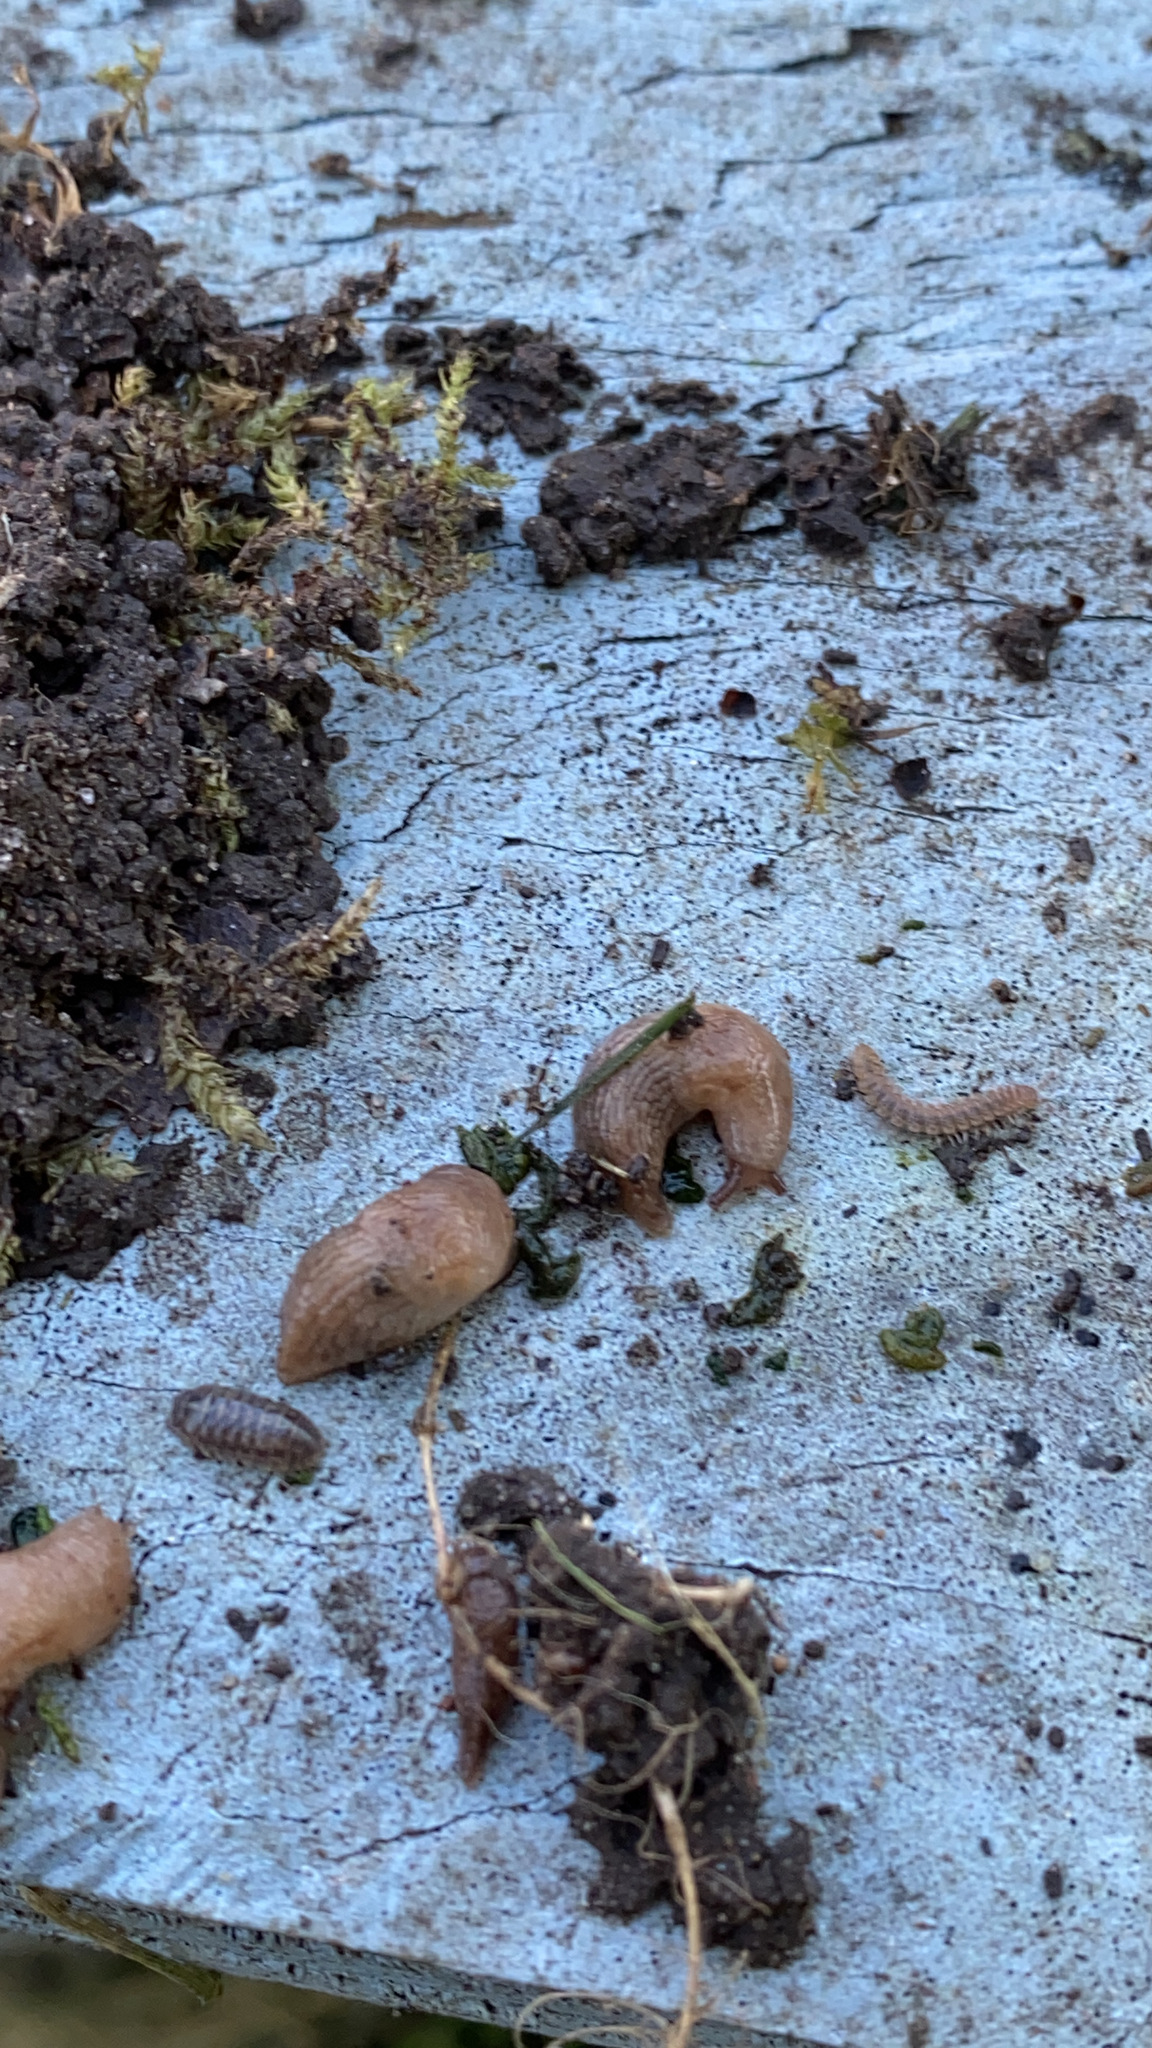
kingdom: Animalia
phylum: Mollusca
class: Gastropoda
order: Stylommatophora
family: Agriolimacidae
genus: Deroceras
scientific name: Deroceras reticulatum
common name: Gray field slug
